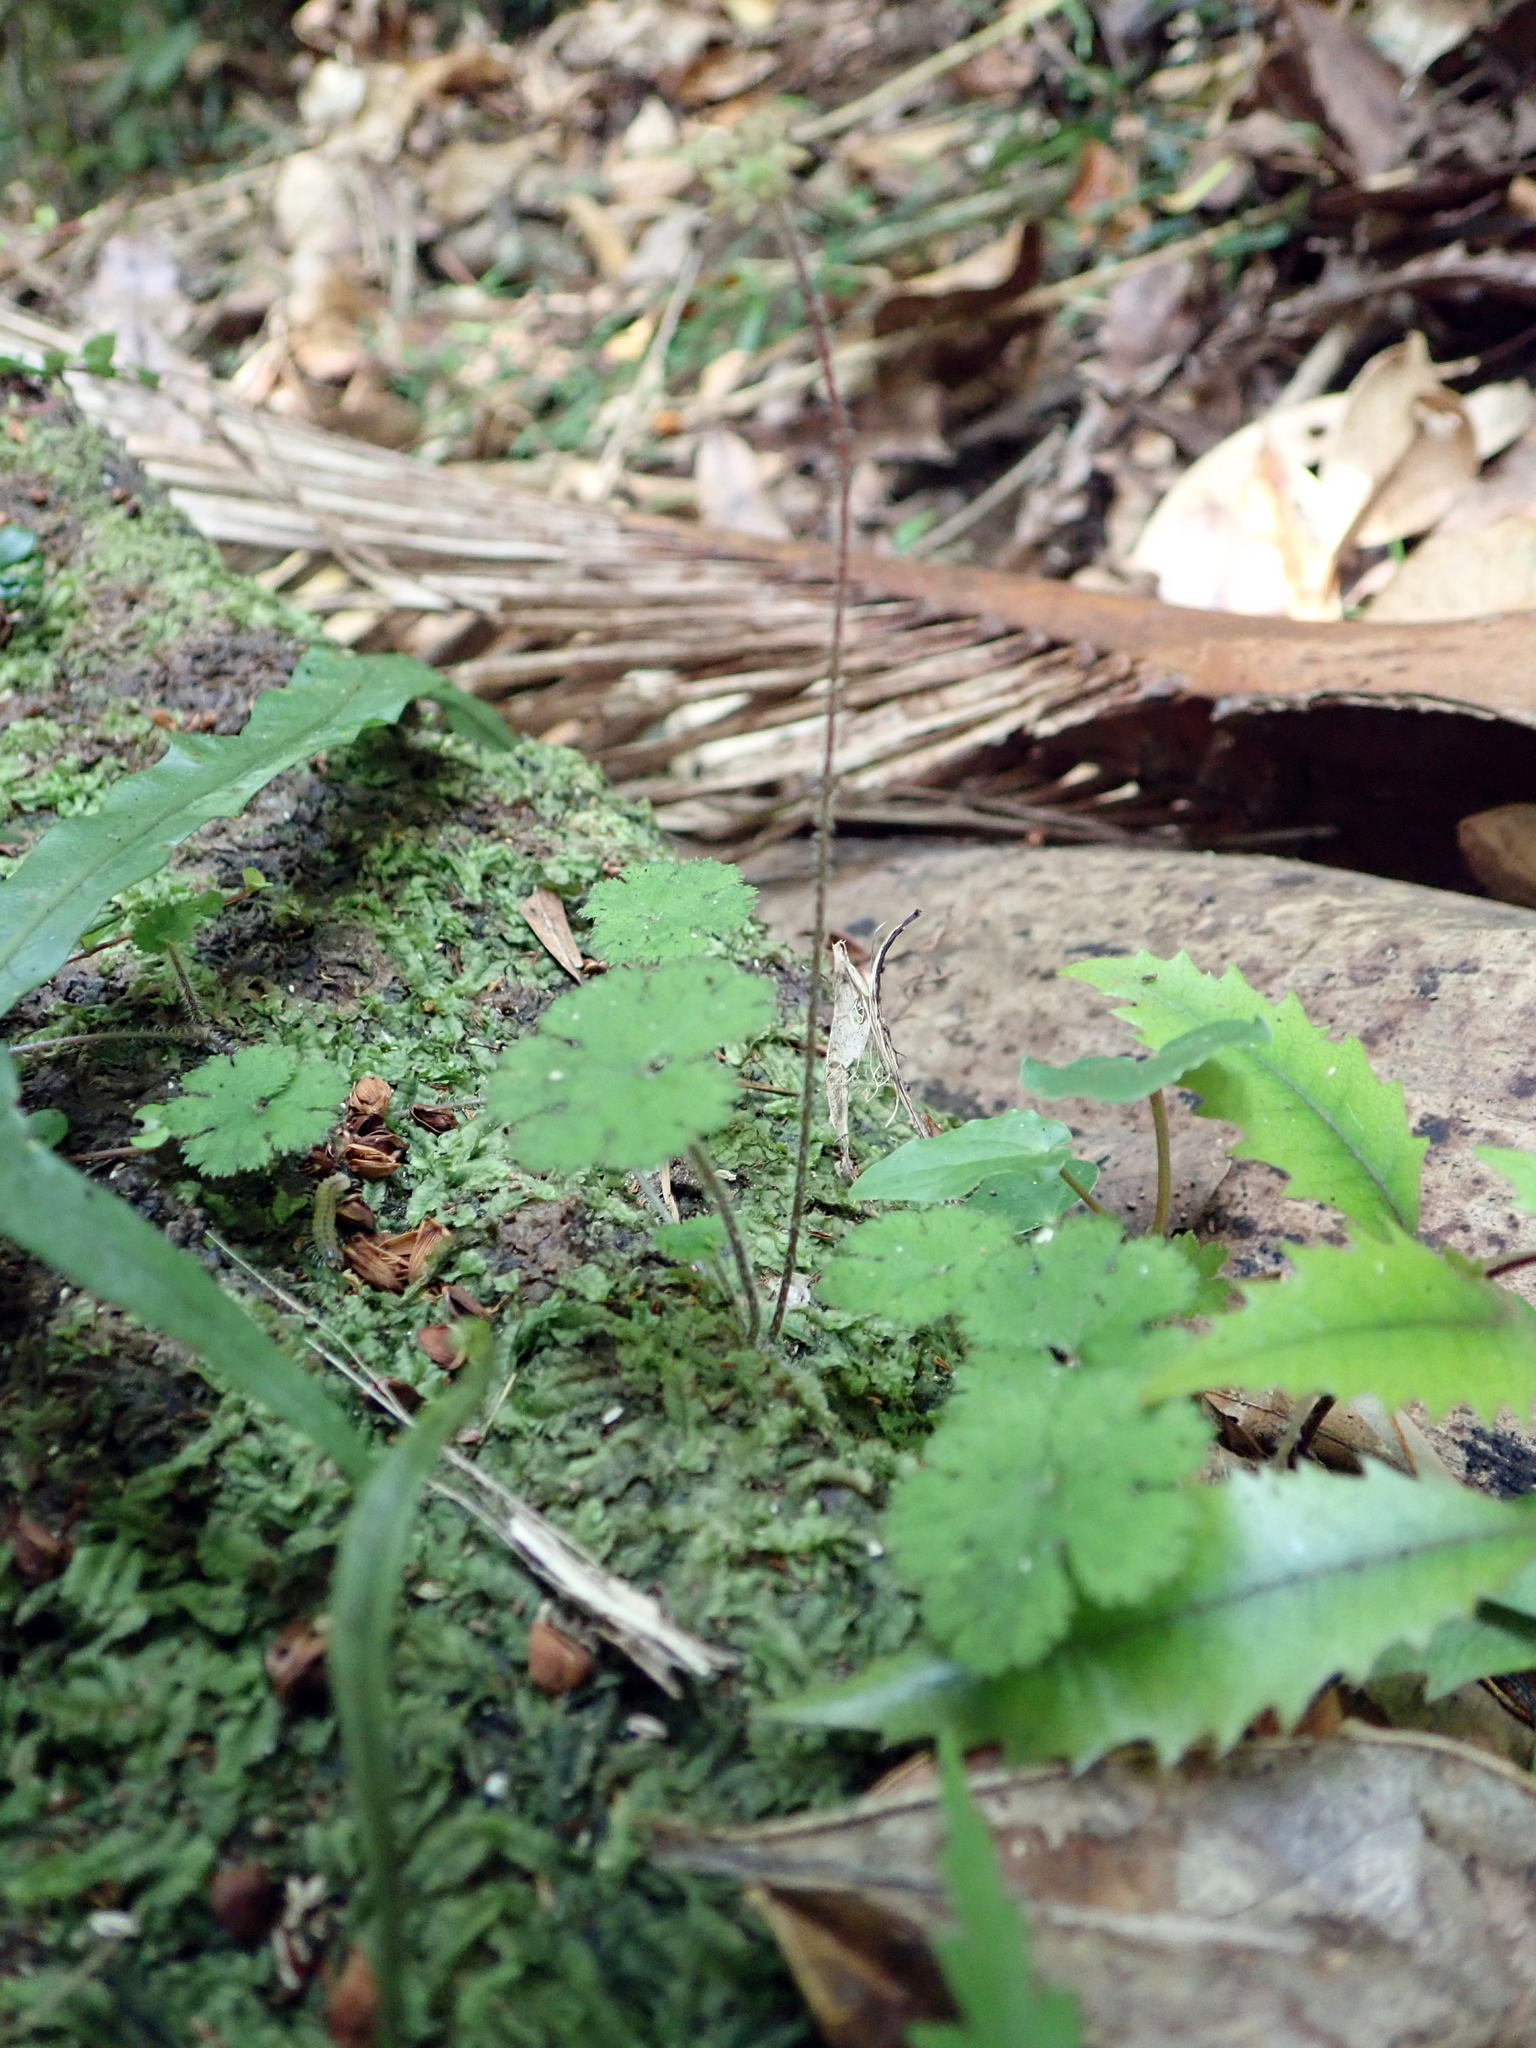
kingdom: Plantae
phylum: Tracheophyta
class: Magnoliopsida
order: Apiales
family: Araliaceae
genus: Hydrocotyle
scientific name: Hydrocotyle elongata
